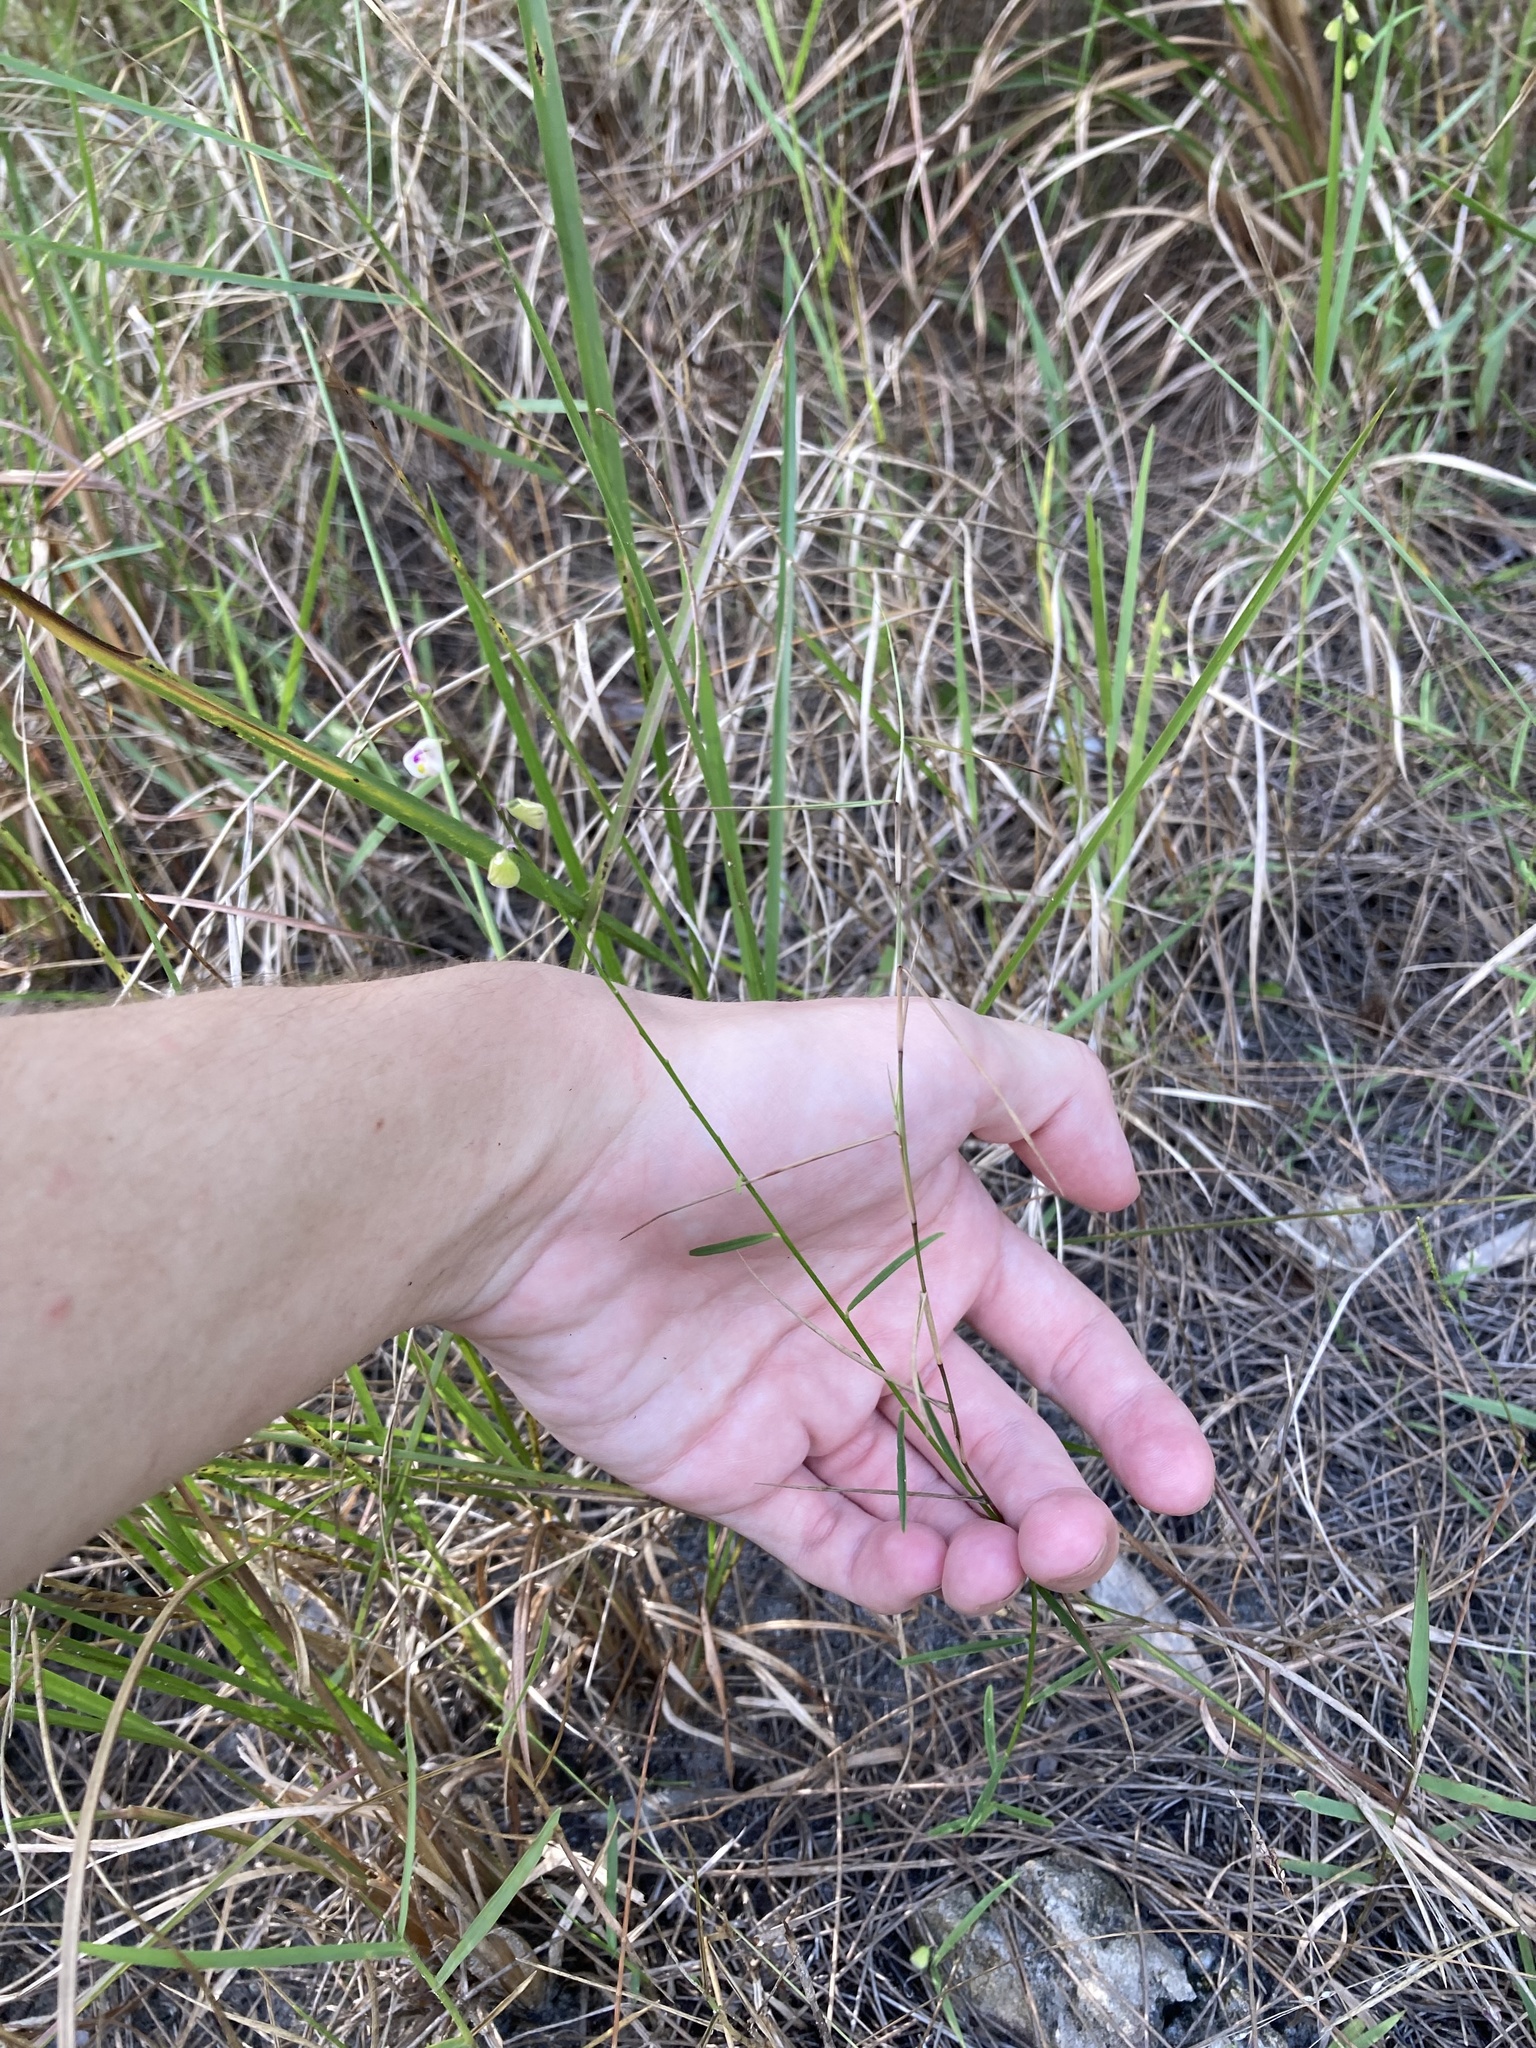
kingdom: Plantae
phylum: Tracheophyta
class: Magnoliopsida
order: Fabales
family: Polygalaceae
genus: Asemeia
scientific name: Asemeia grandiflora
